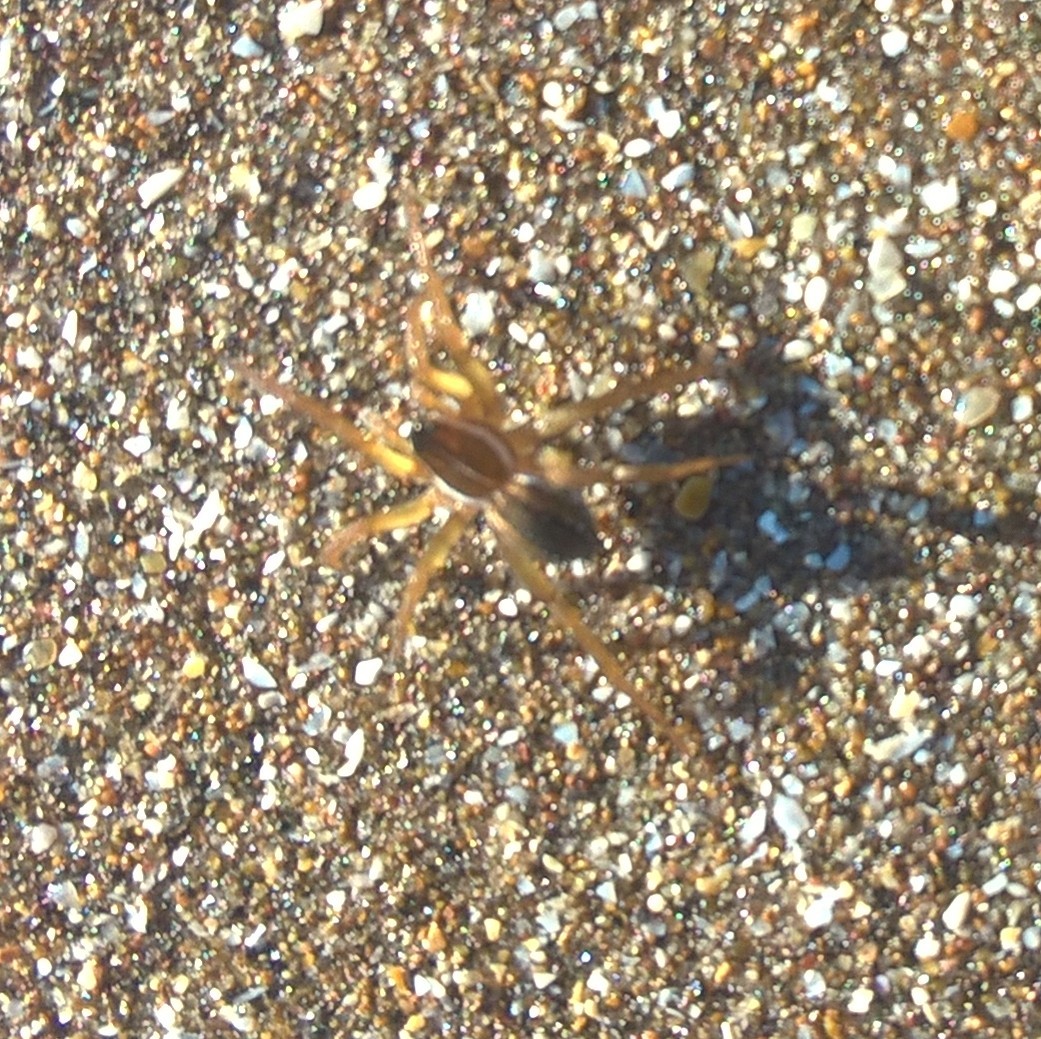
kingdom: Animalia
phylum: Arthropoda
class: Arachnida
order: Araneae
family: Lycosidae
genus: Diapontia
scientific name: Diapontia uruguayensis
